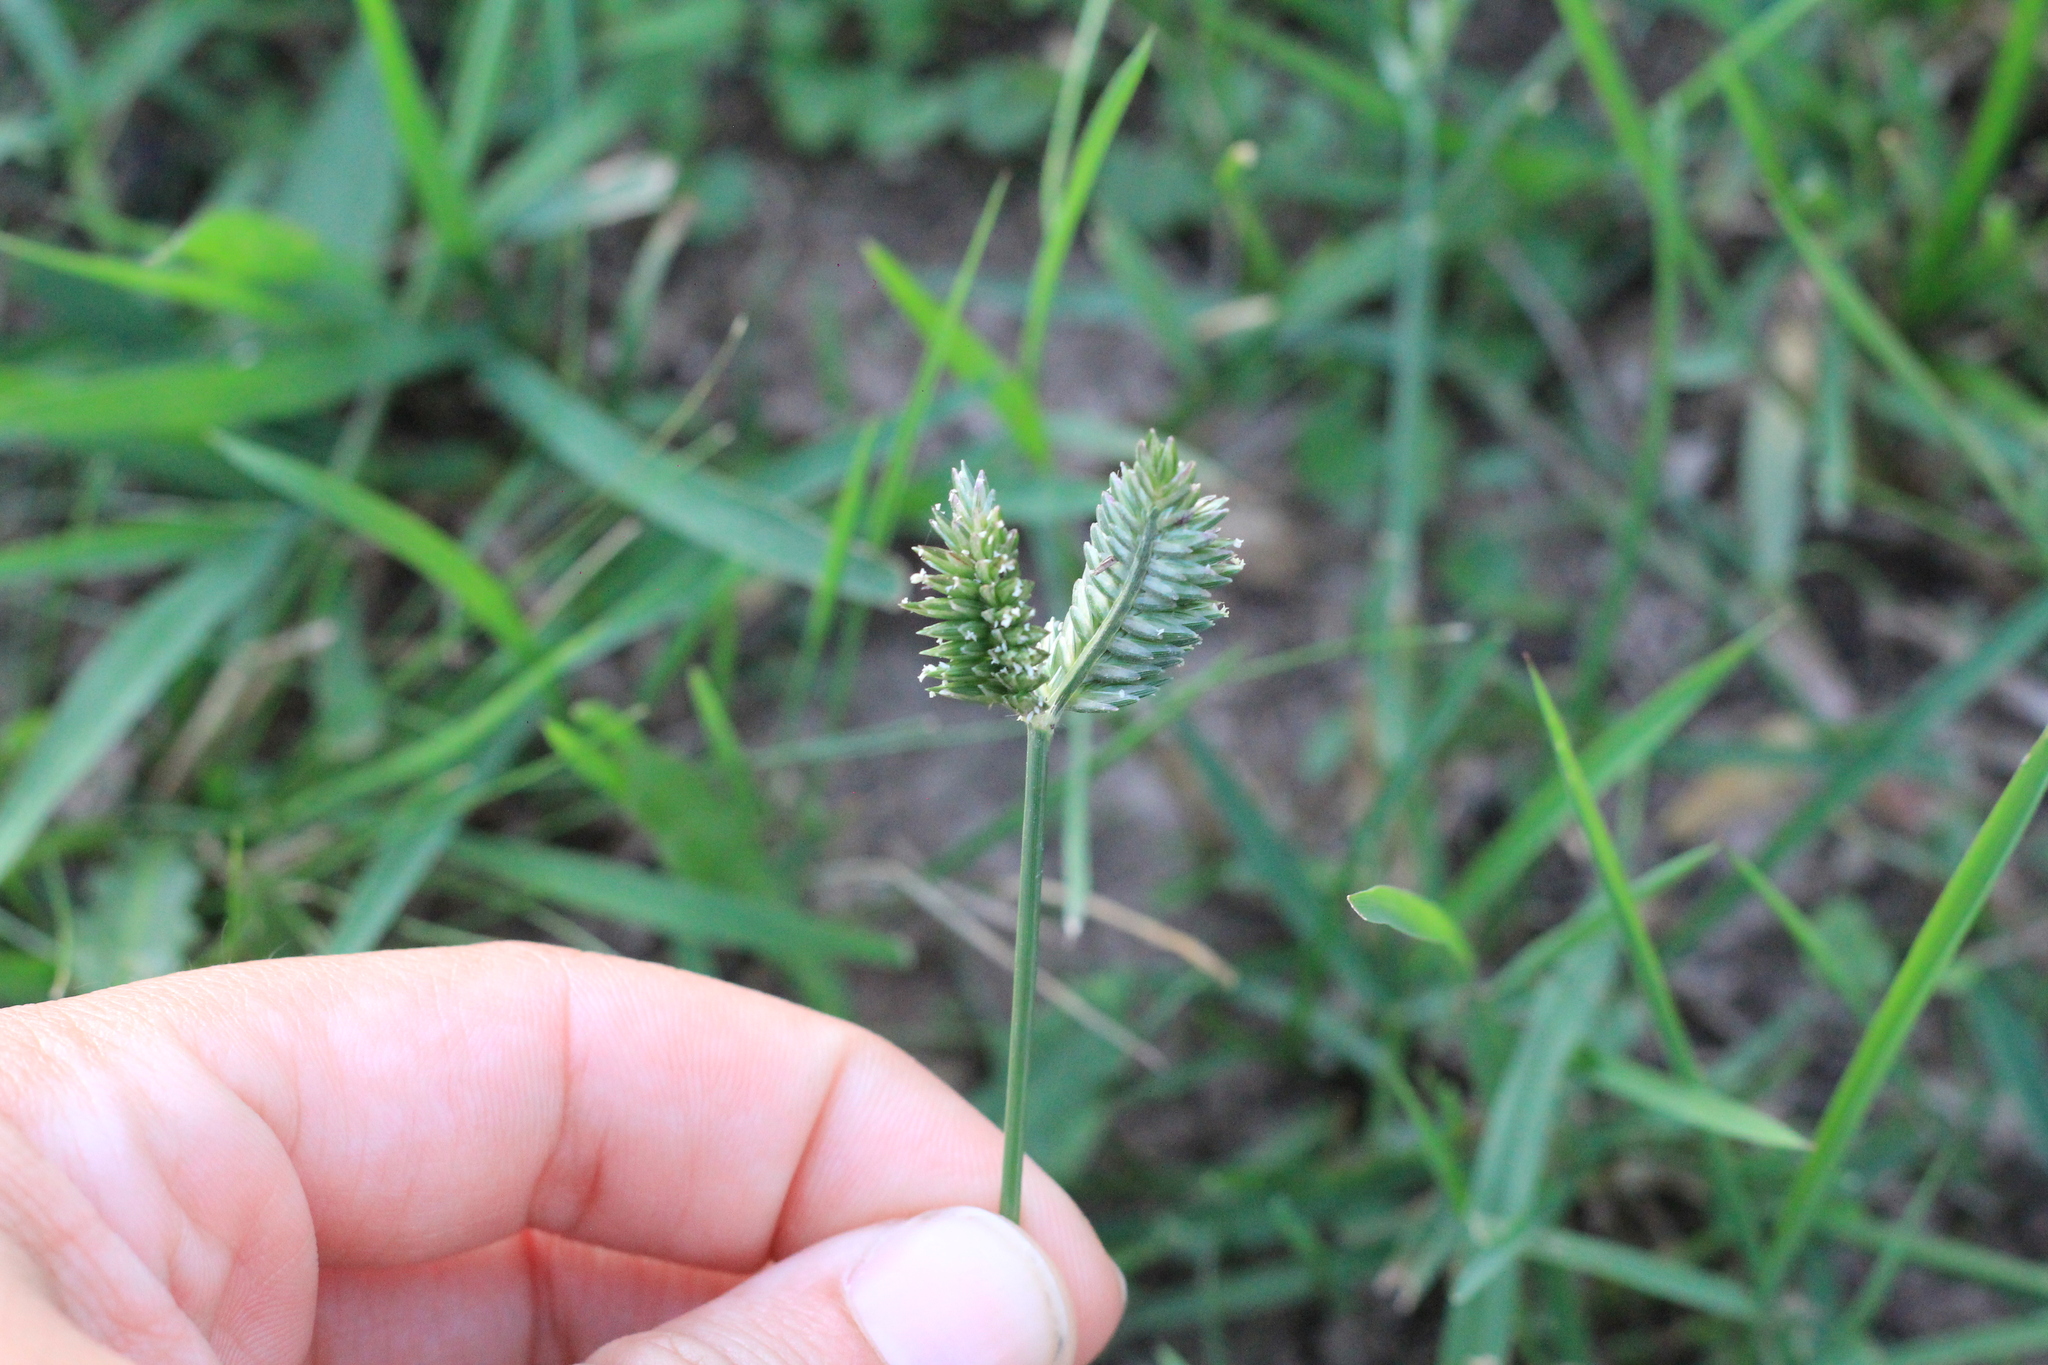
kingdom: Plantae
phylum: Tracheophyta
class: Liliopsida
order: Poales
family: Poaceae
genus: Eleusine
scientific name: Eleusine tristachya
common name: American yard-grass
